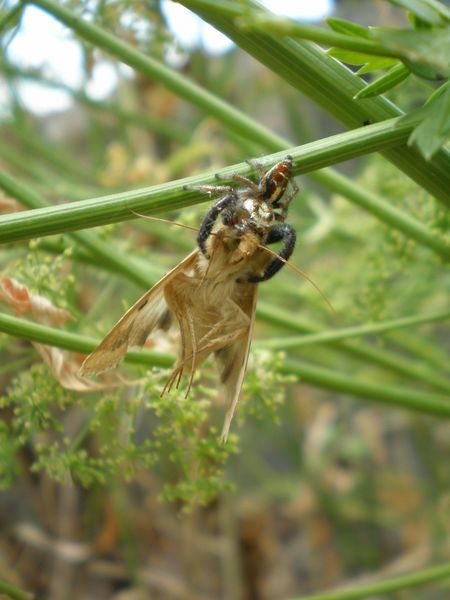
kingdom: Animalia
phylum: Arthropoda
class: Arachnida
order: Araneae
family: Salticidae
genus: Thyene
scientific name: Thyene imperialis
